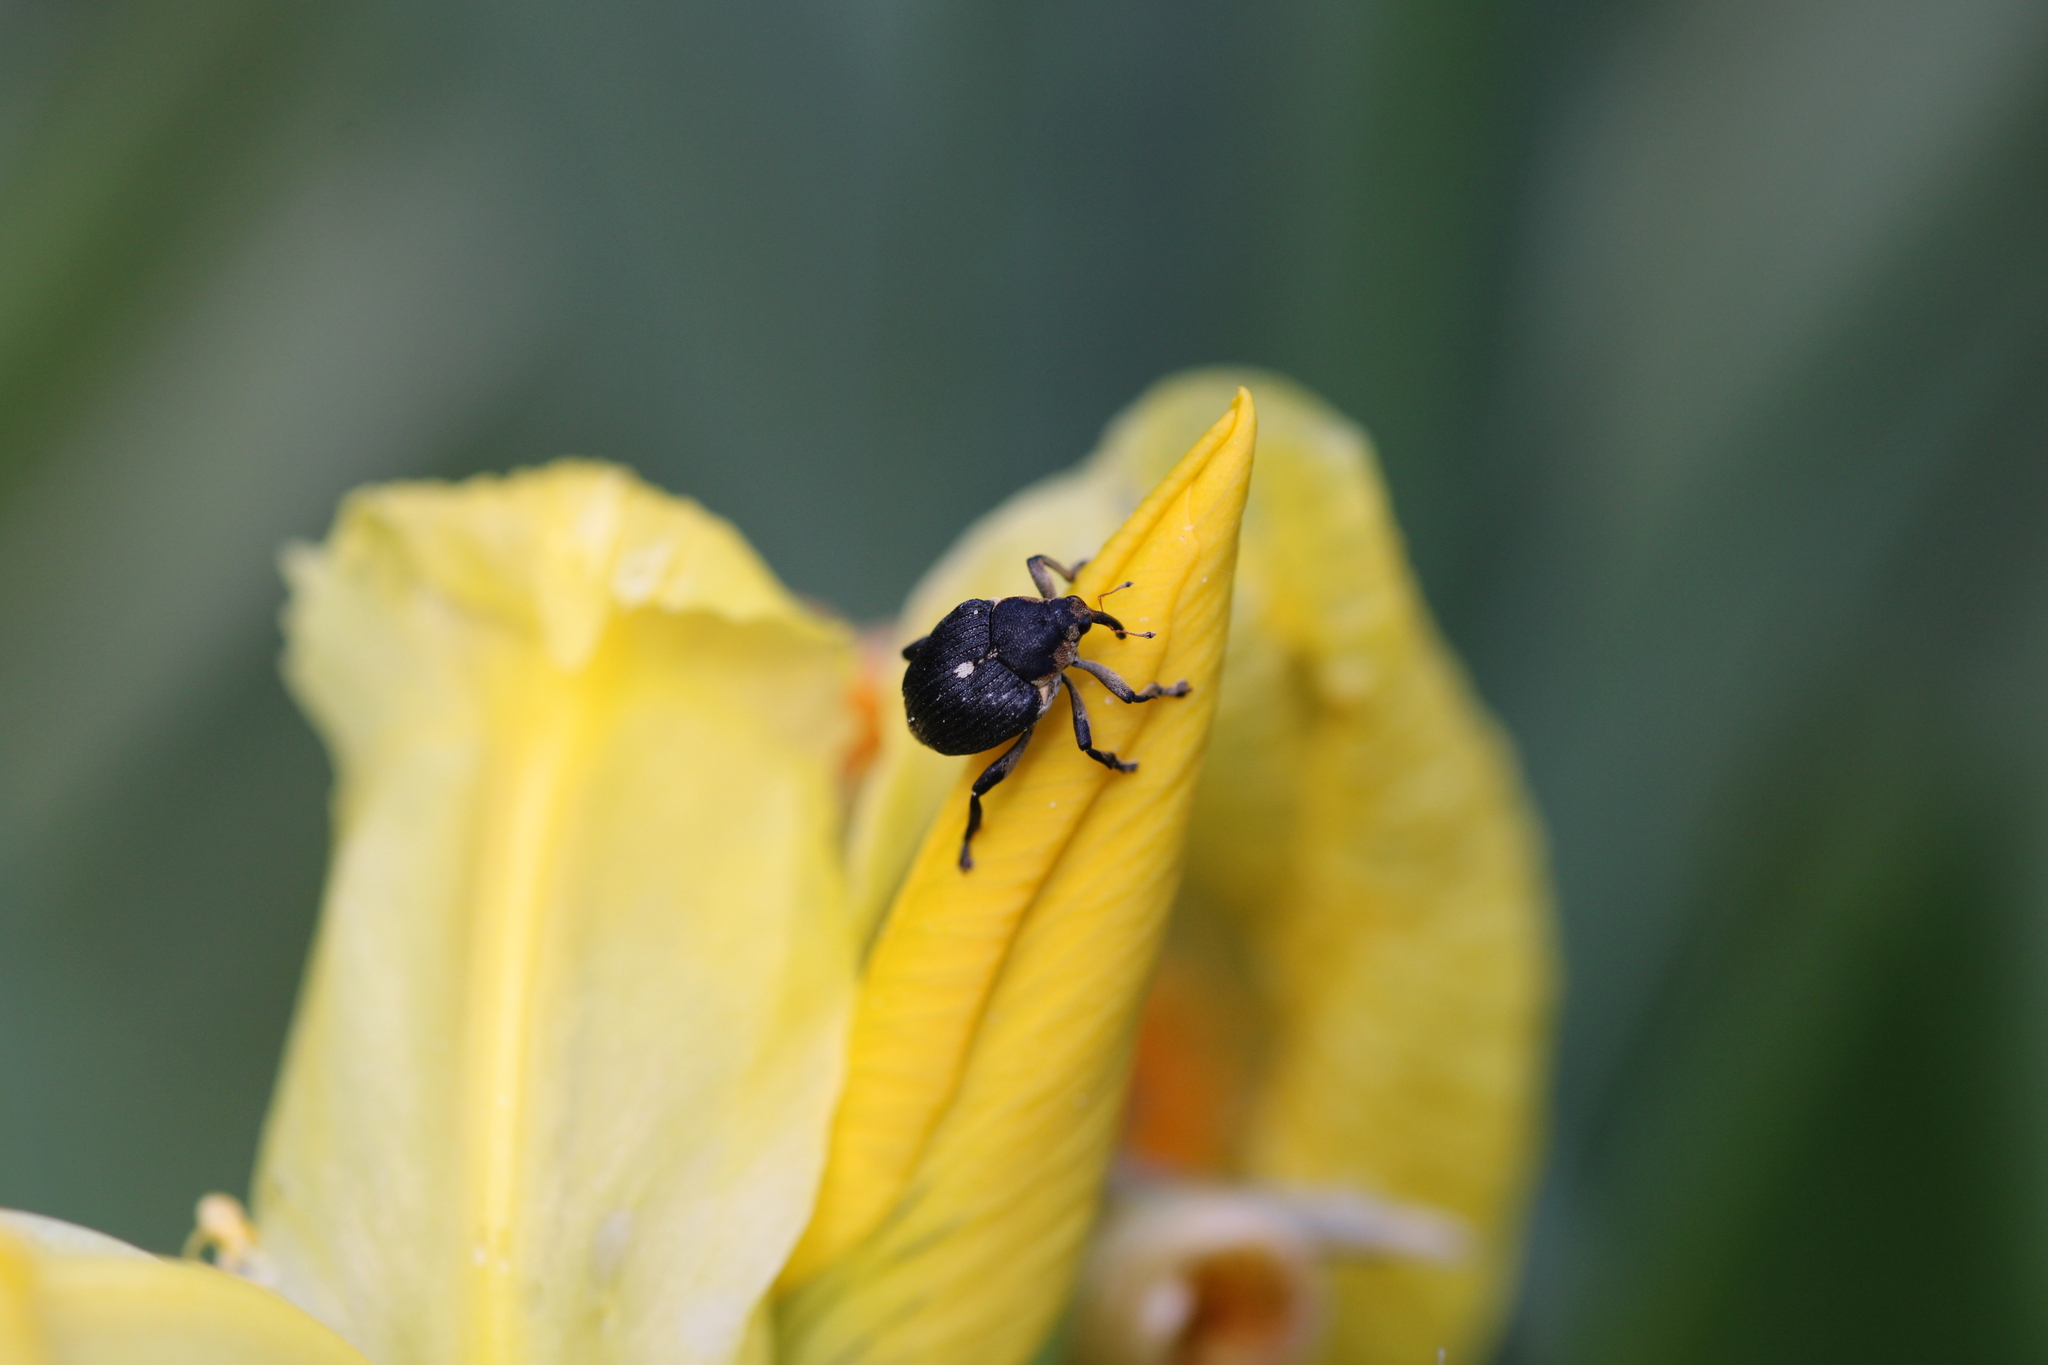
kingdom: Animalia
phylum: Arthropoda
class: Insecta
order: Coleoptera
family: Curculionidae
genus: Mononychus
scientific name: Mononychus punctumalbum
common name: Iris weevil
